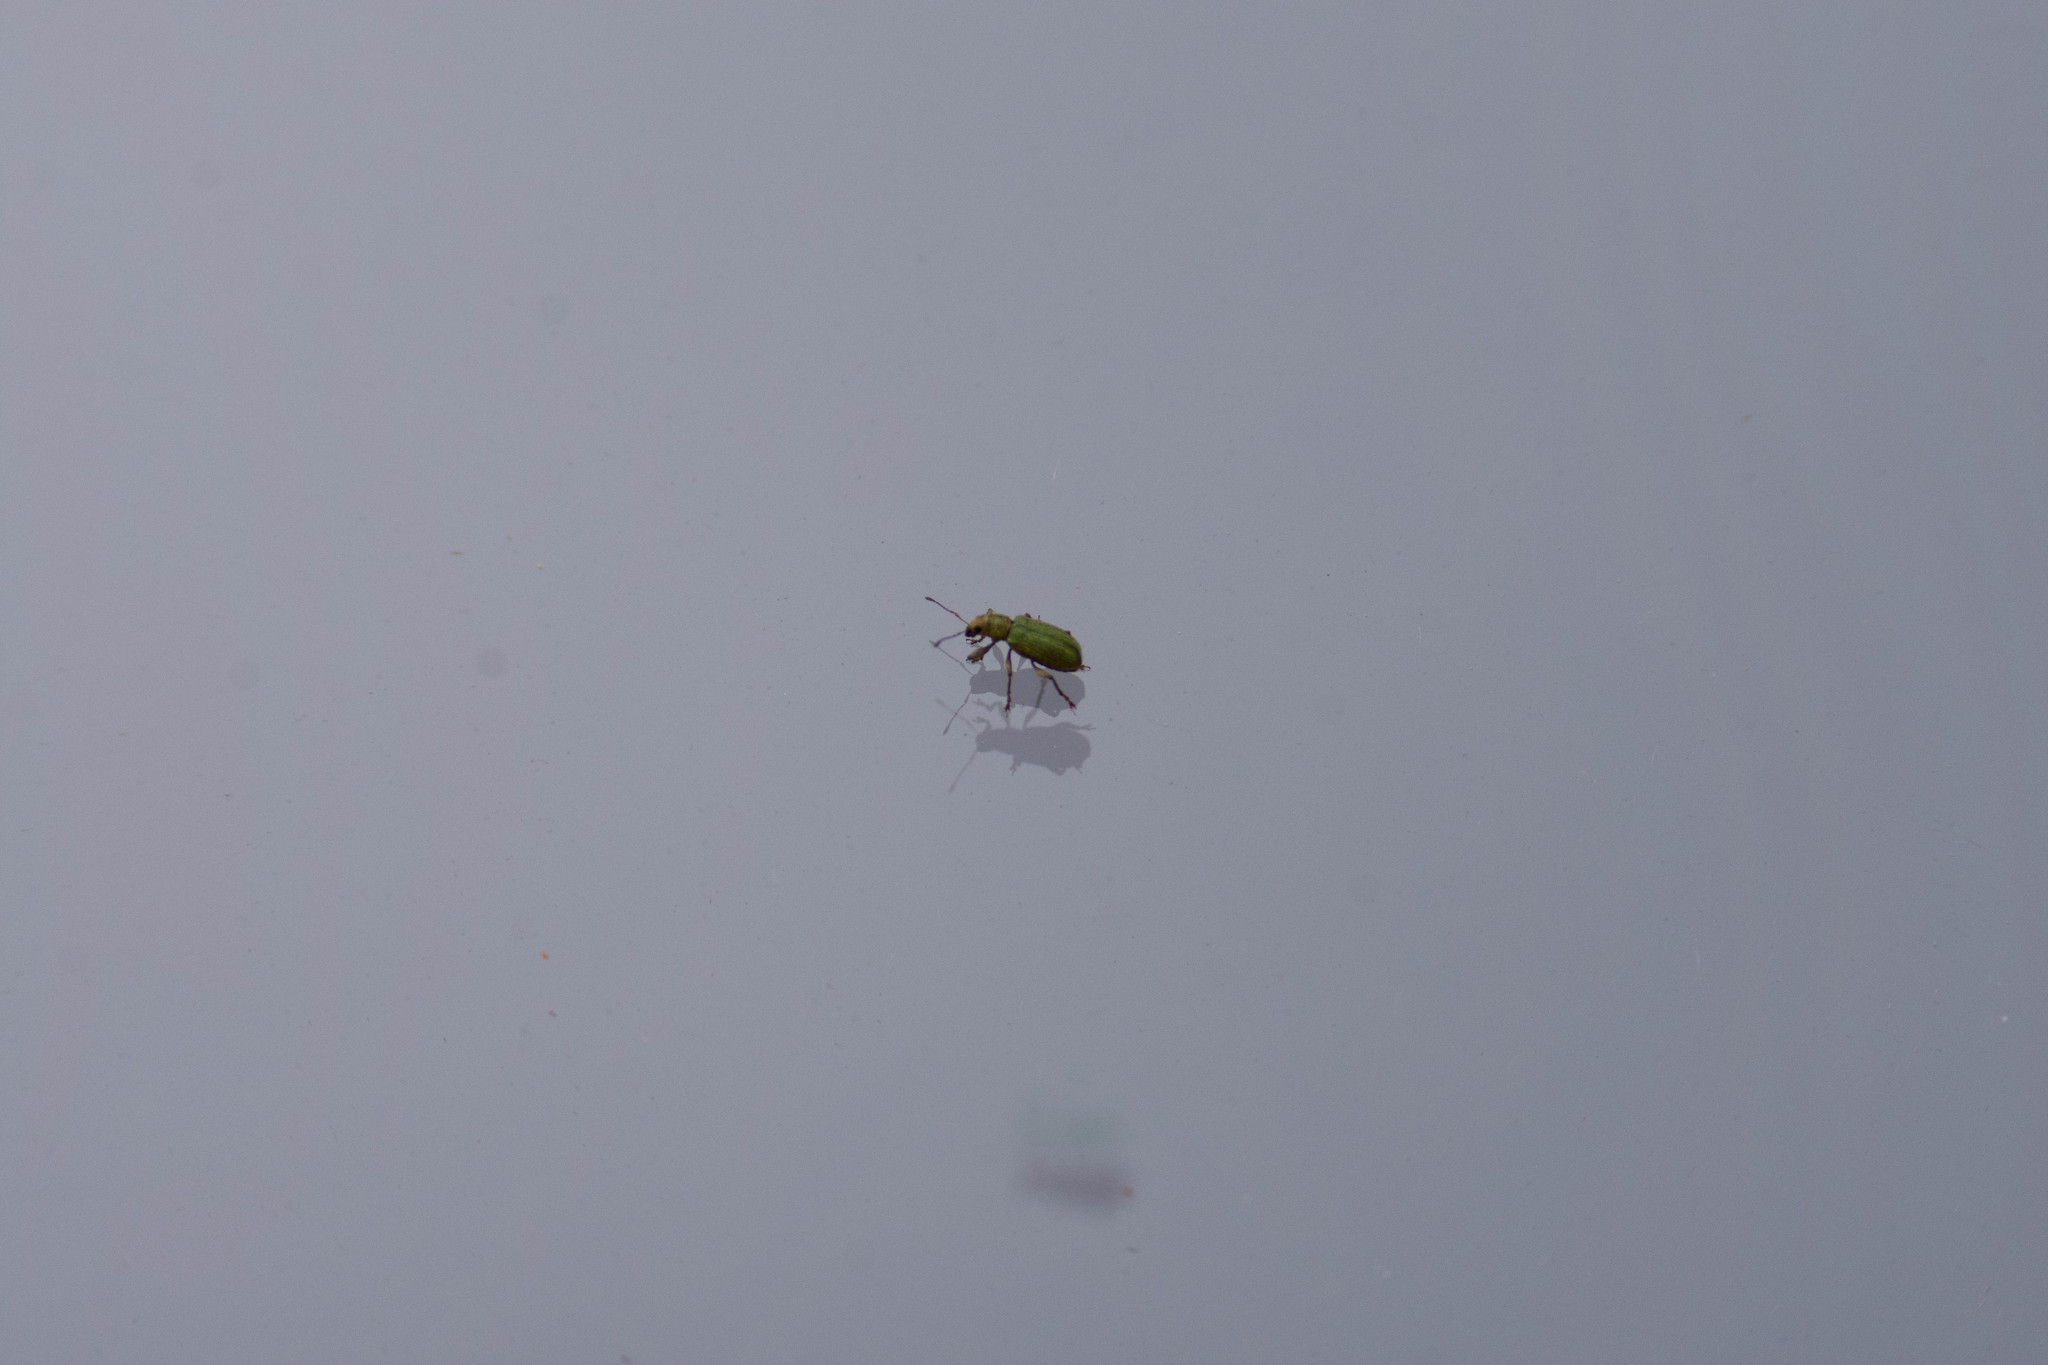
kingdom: Animalia
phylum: Arthropoda
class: Insecta
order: Coleoptera
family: Curculionidae
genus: Pachyrhinus
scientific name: Pachyrhinus lethierryi
